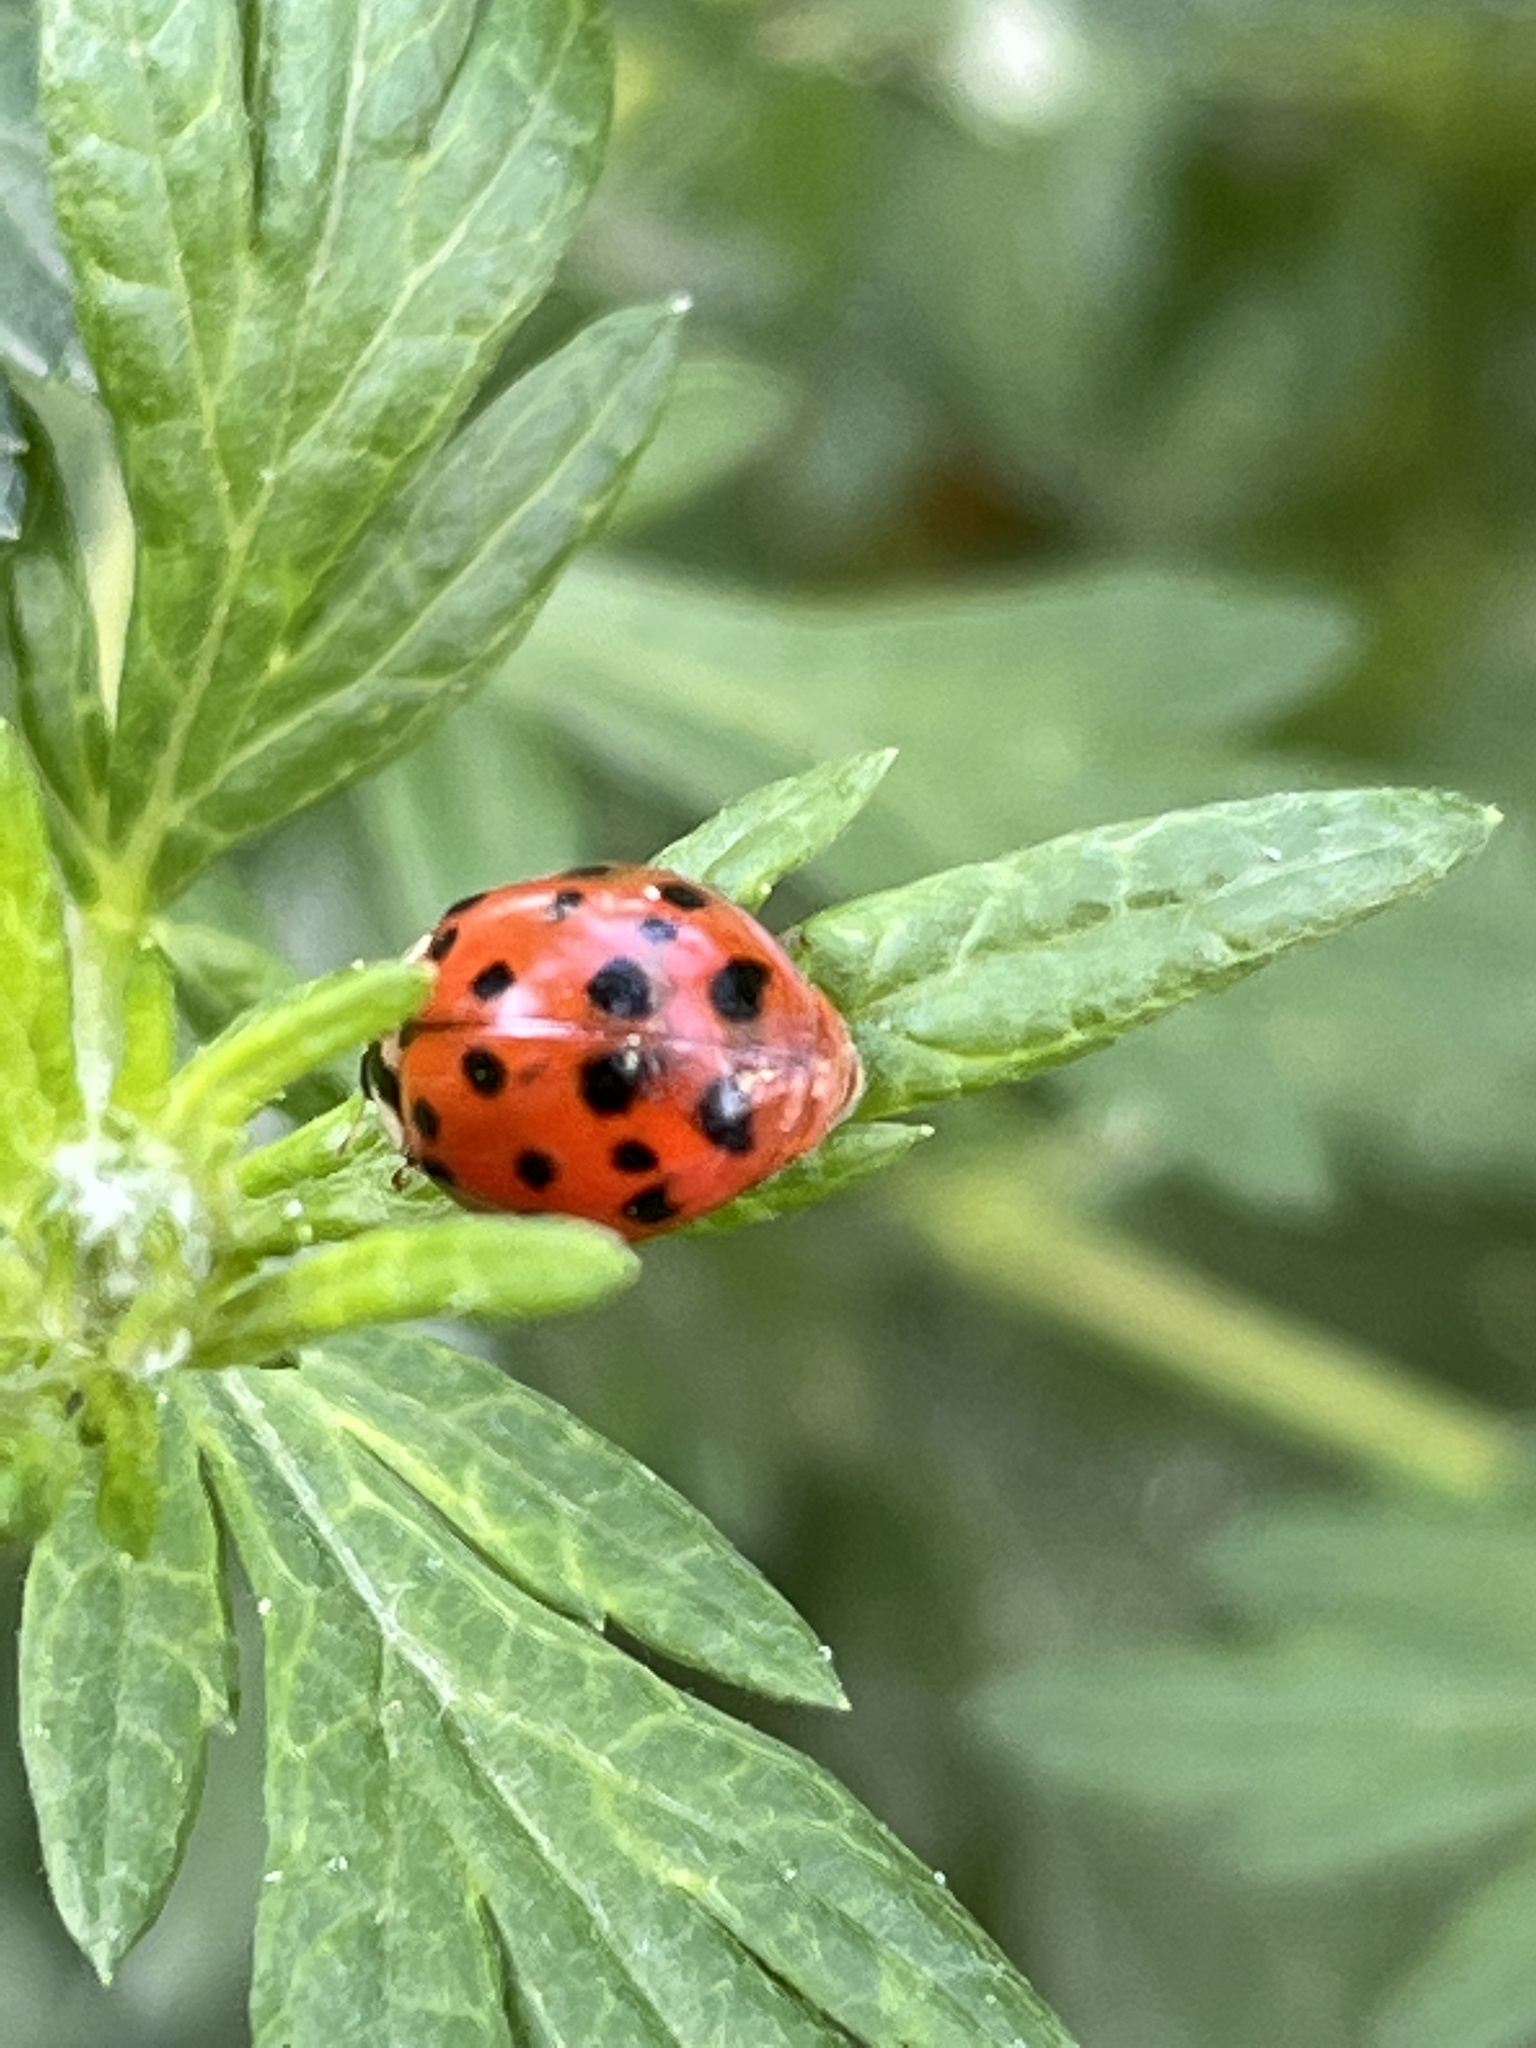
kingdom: Animalia
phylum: Arthropoda
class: Insecta
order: Coleoptera
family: Coccinellidae
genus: Harmonia
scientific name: Harmonia axyridis
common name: Harlequin ladybird
